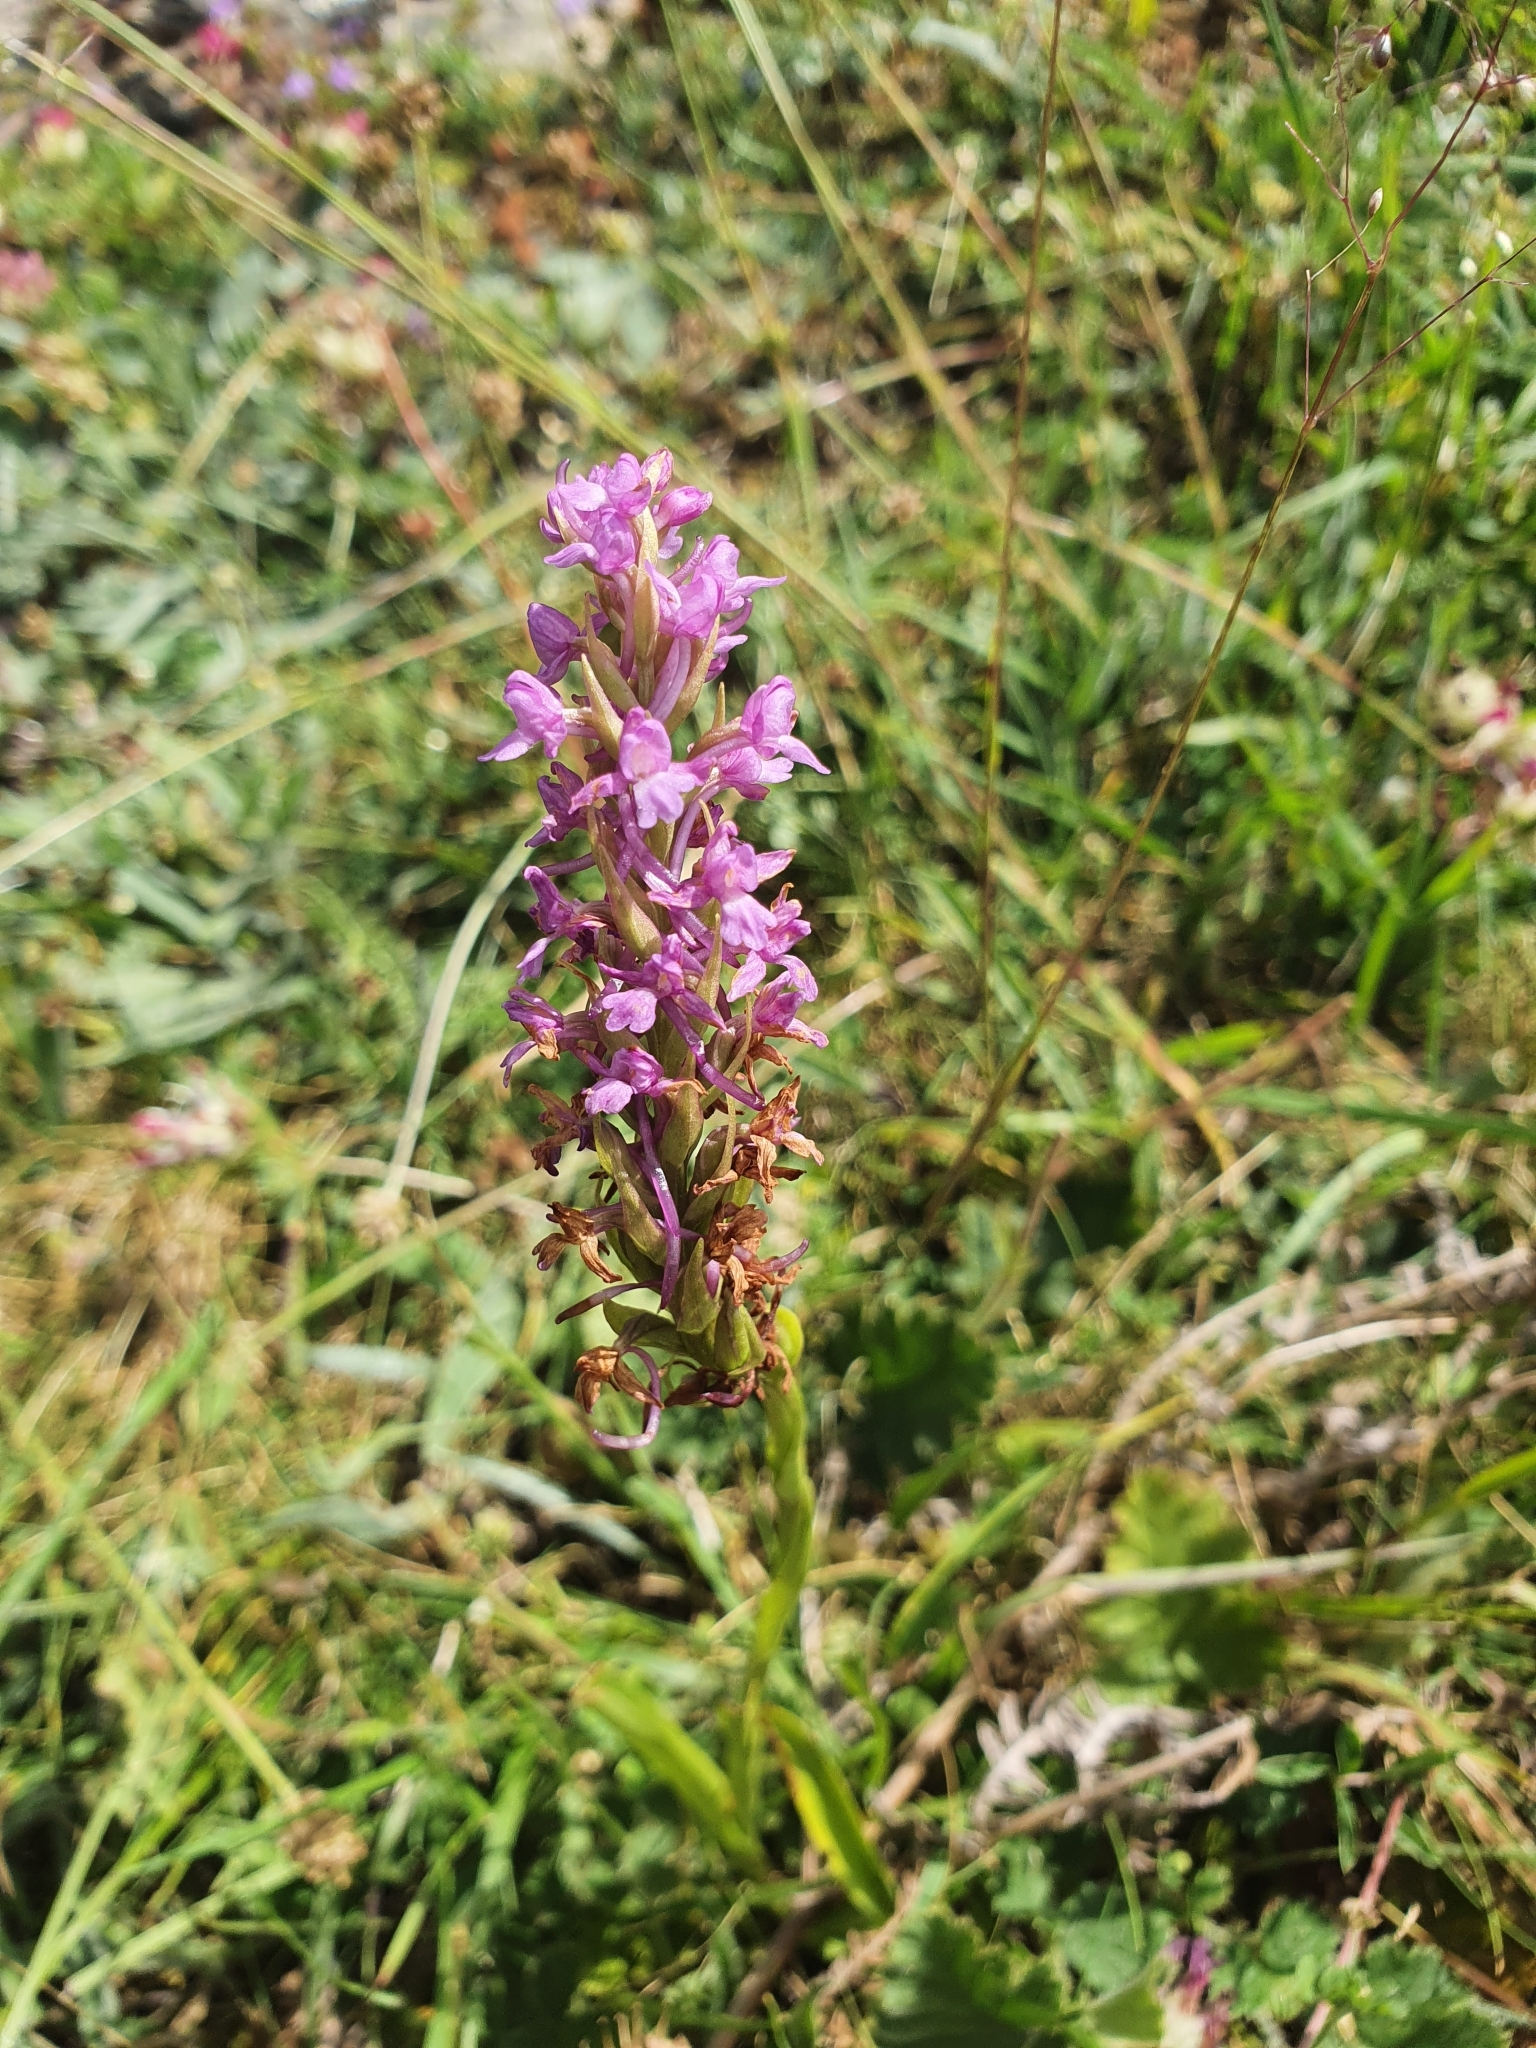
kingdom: Plantae
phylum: Tracheophyta
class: Liliopsida
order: Asparagales
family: Orchidaceae
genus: Gymnadenia
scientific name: Gymnadenia conopsea
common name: Fragrant orchid
